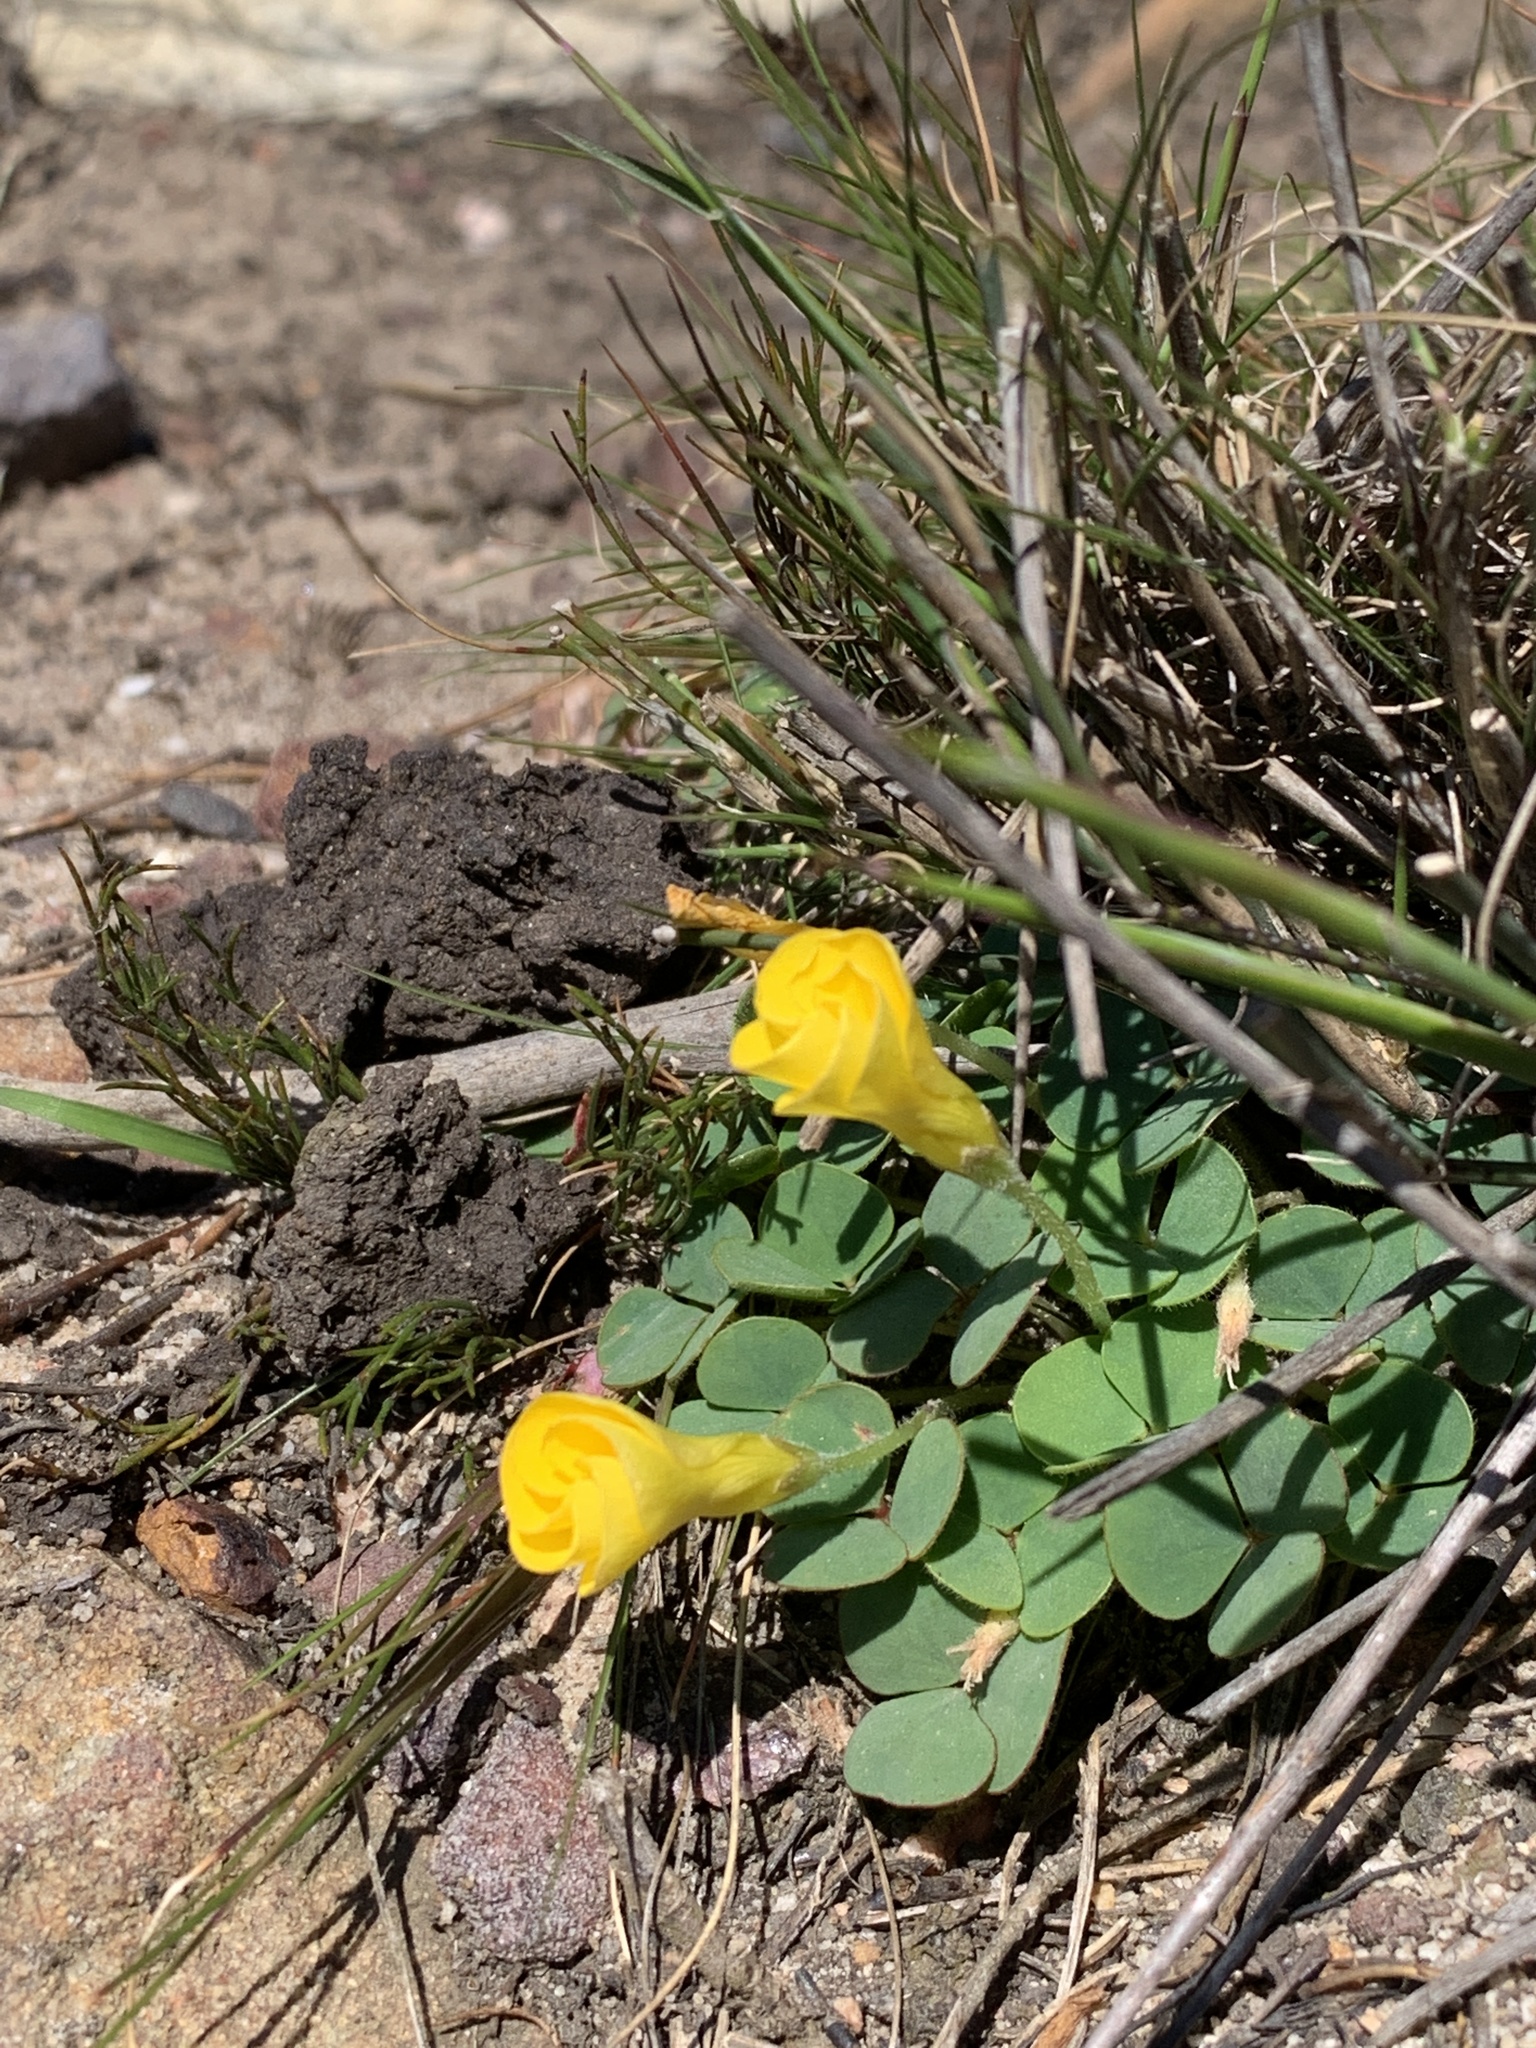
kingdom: Plantae
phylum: Tracheophyta
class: Magnoliopsida
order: Oxalidales
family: Oxalidaceae
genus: Oxalis
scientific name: Oxalis luteola
